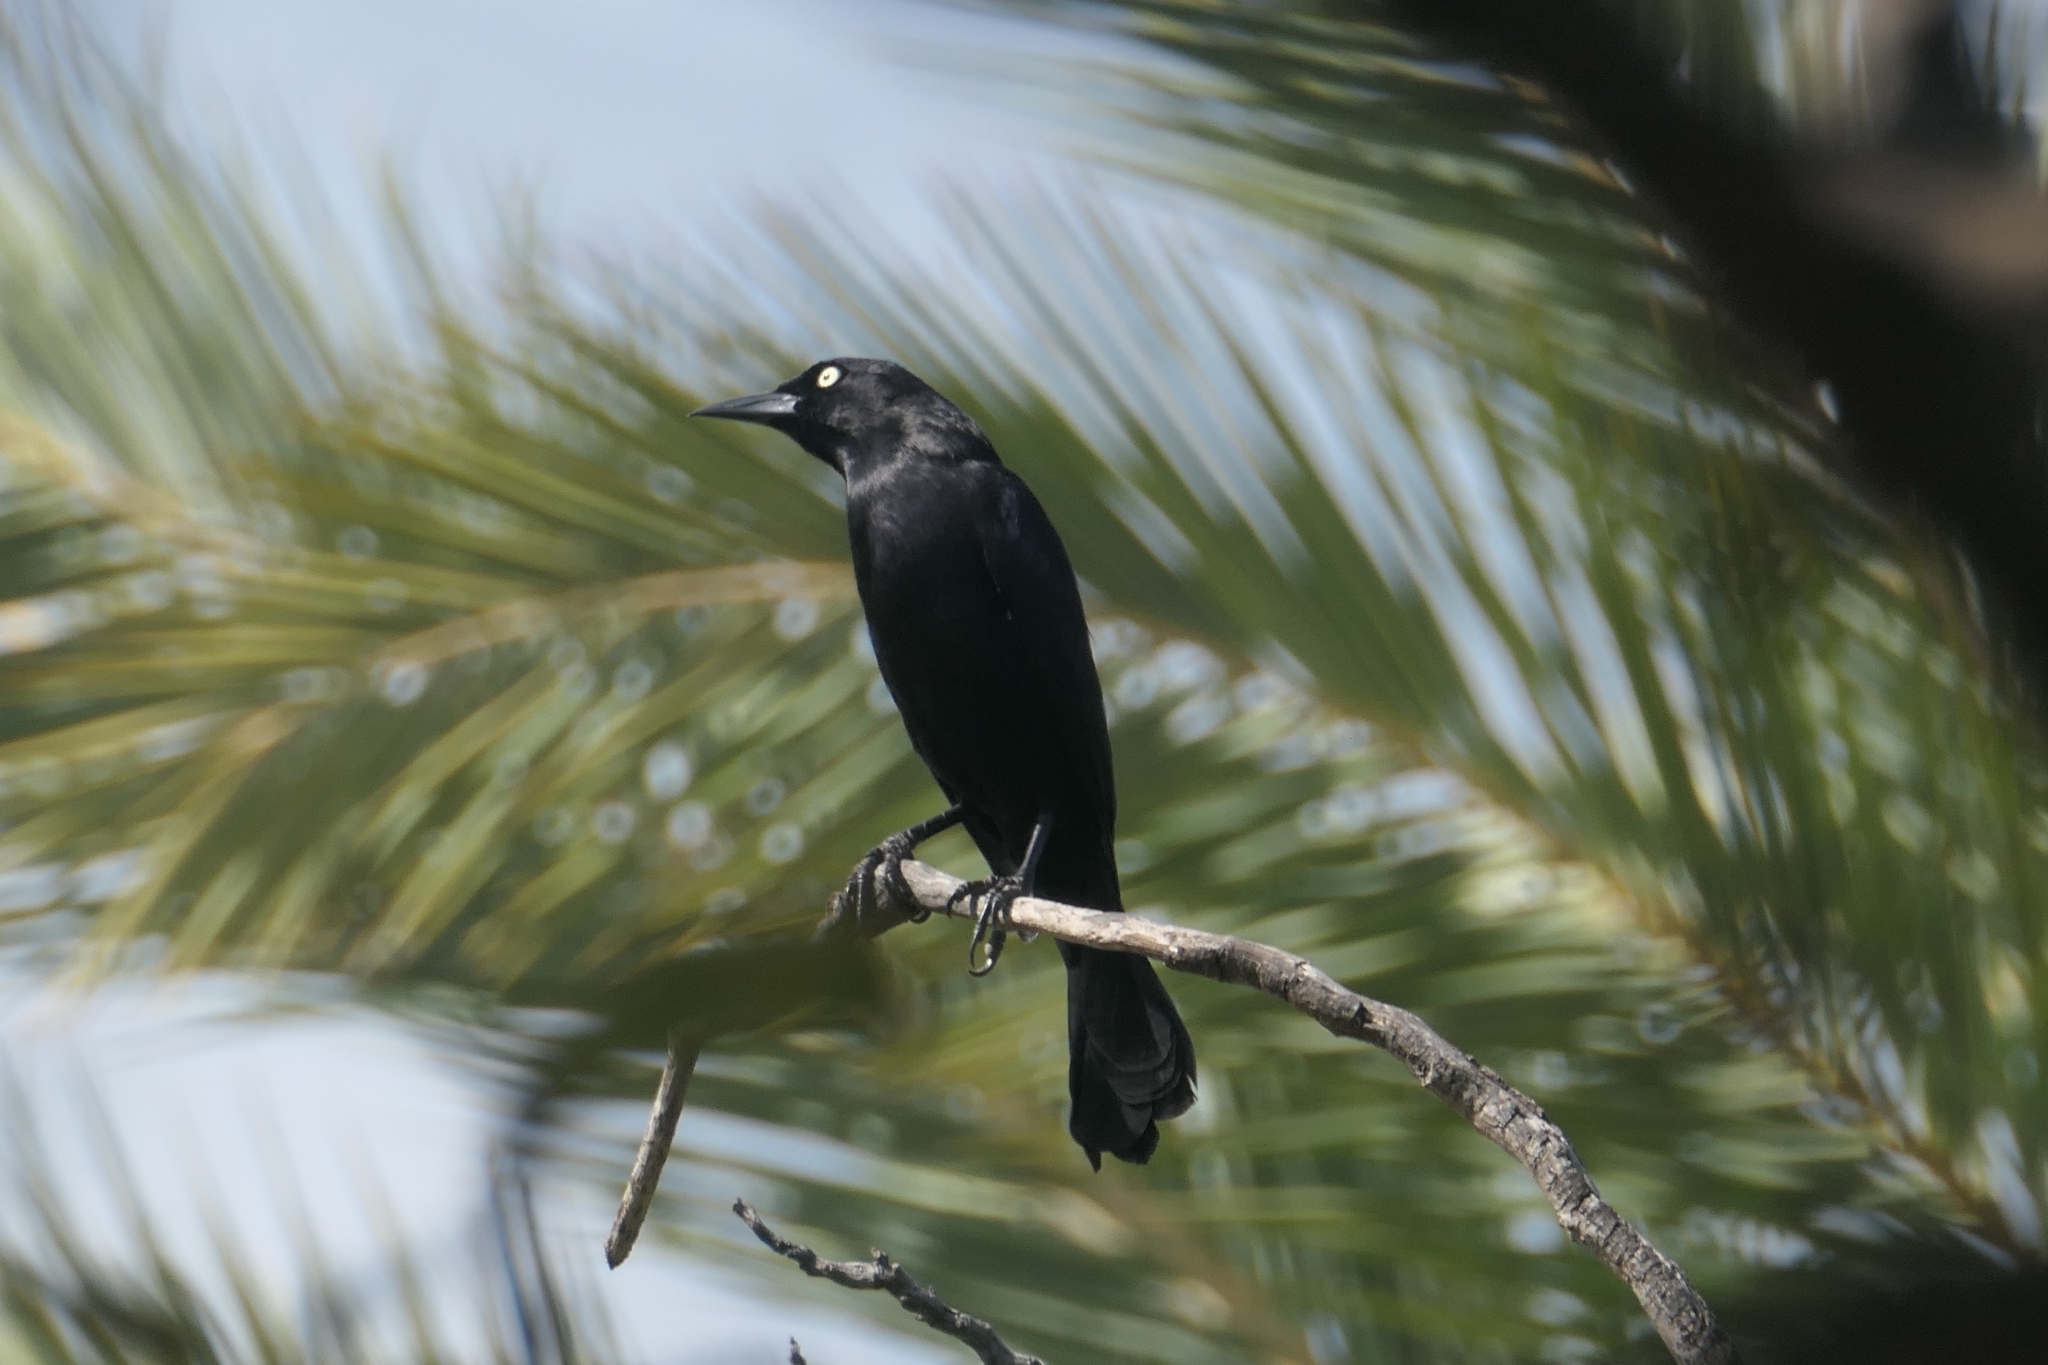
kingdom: Animalia
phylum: Chordata
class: Aves
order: Passeriformes
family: Icteridae
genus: Quiscalus
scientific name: Quiscalus lugubris
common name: Carib grackle
